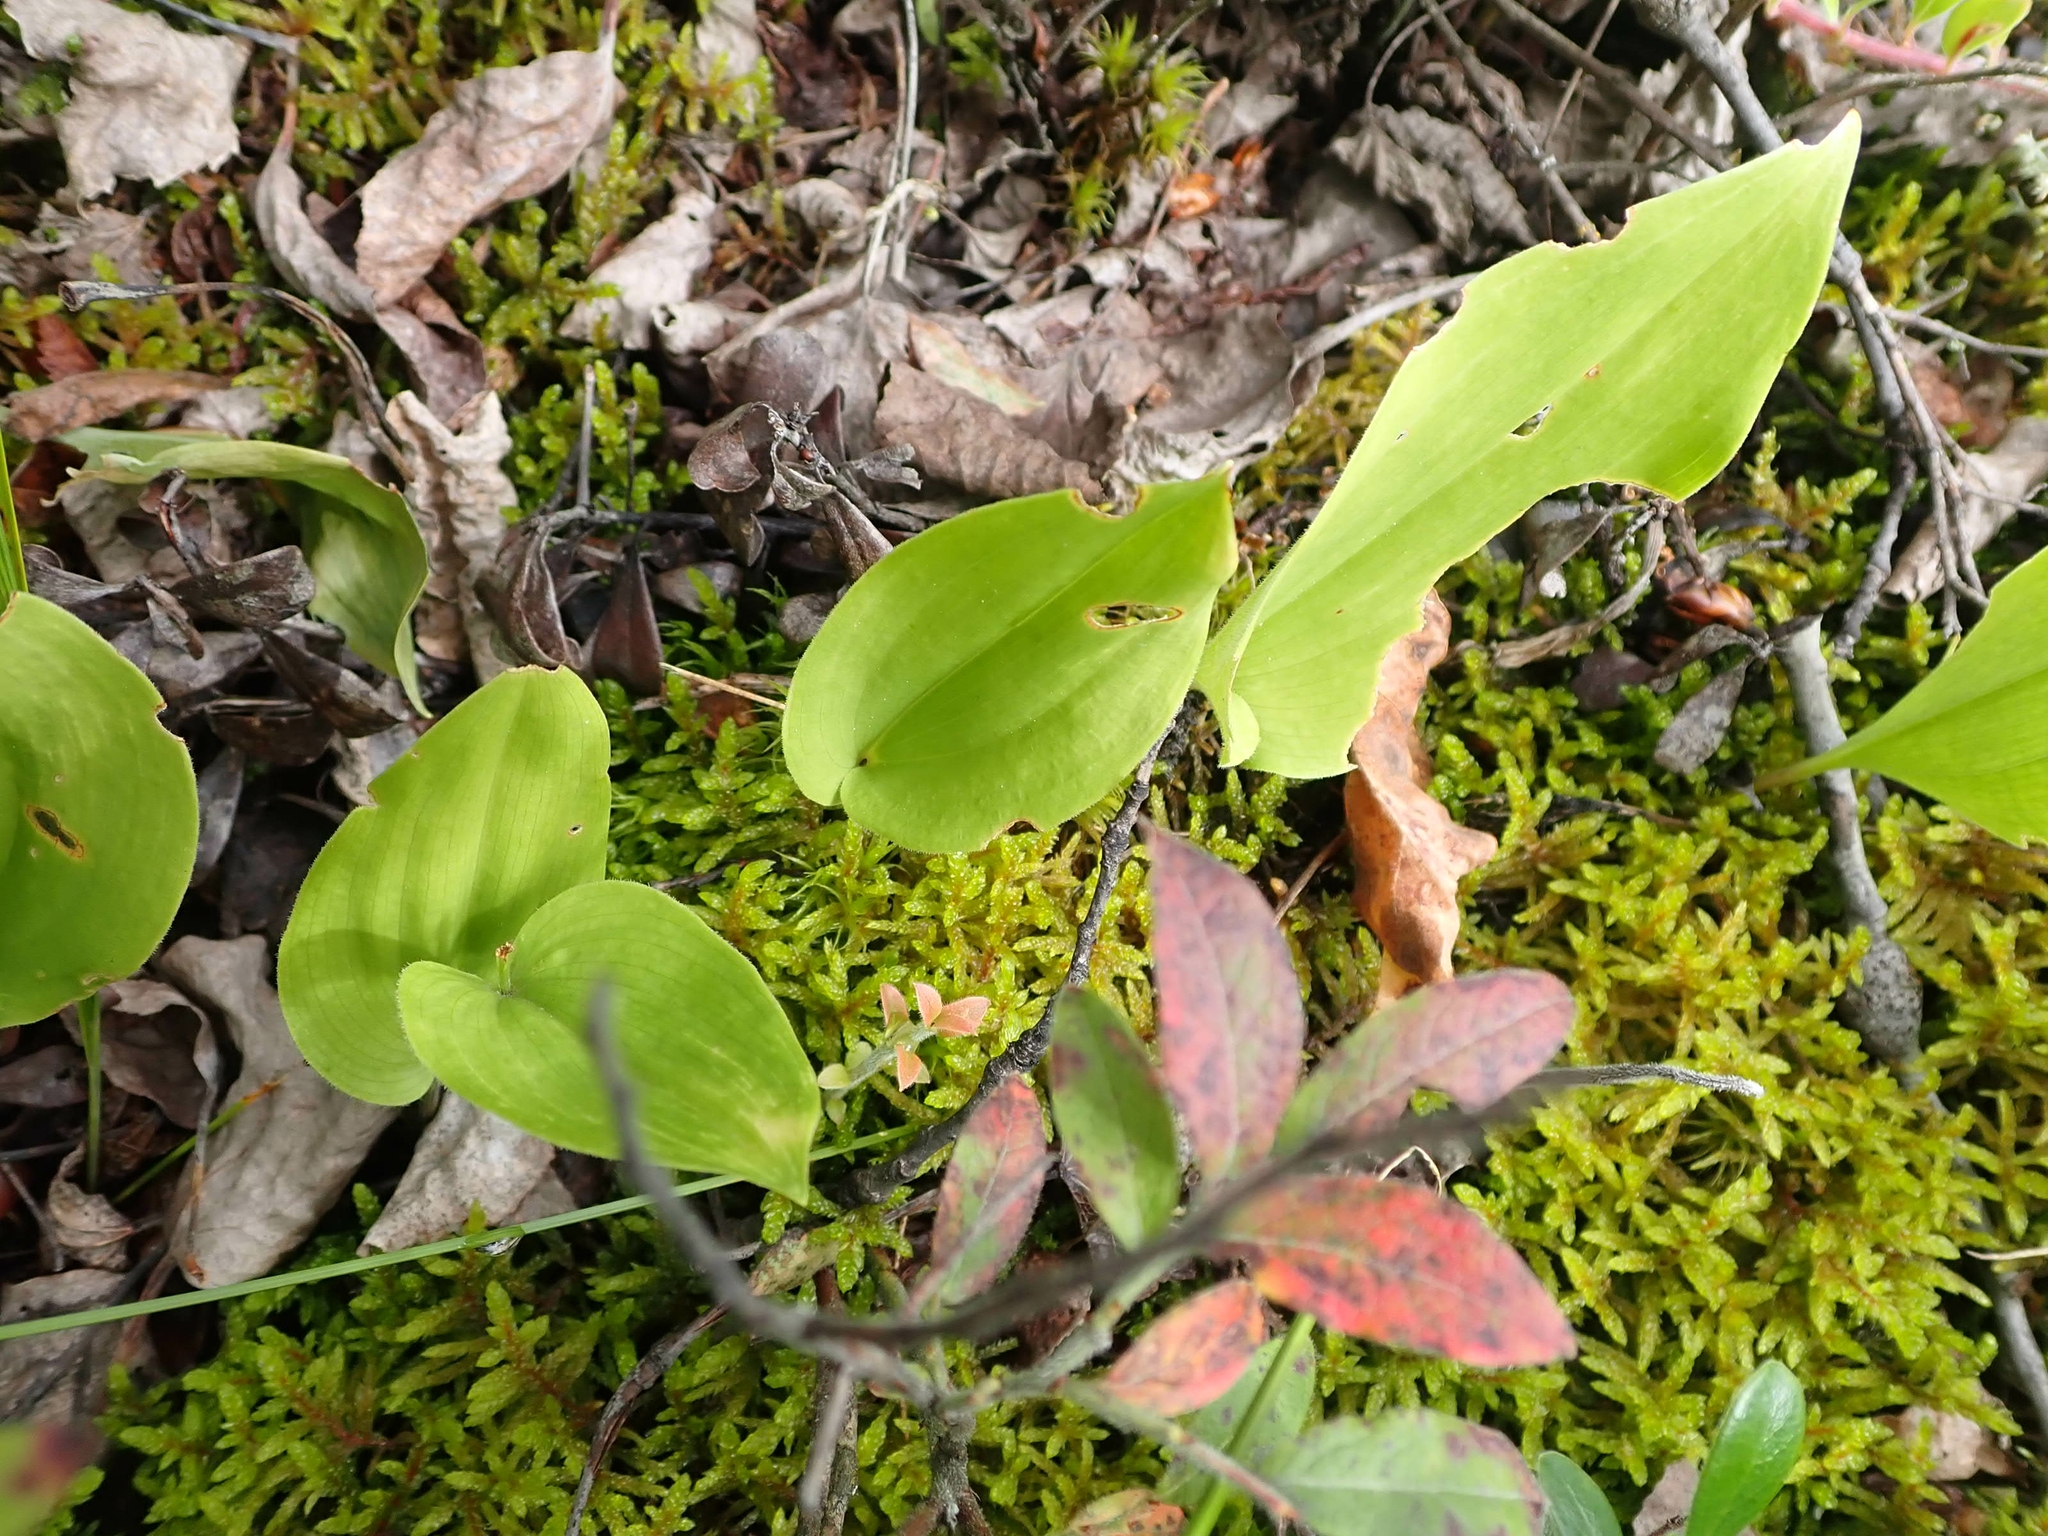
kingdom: Plantae
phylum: Tracheophyta
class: Liliopsida
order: Asparagales
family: Asparagaceae
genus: Maianthemum
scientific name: Maianthemum canadense
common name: False lily-of-the-valley
